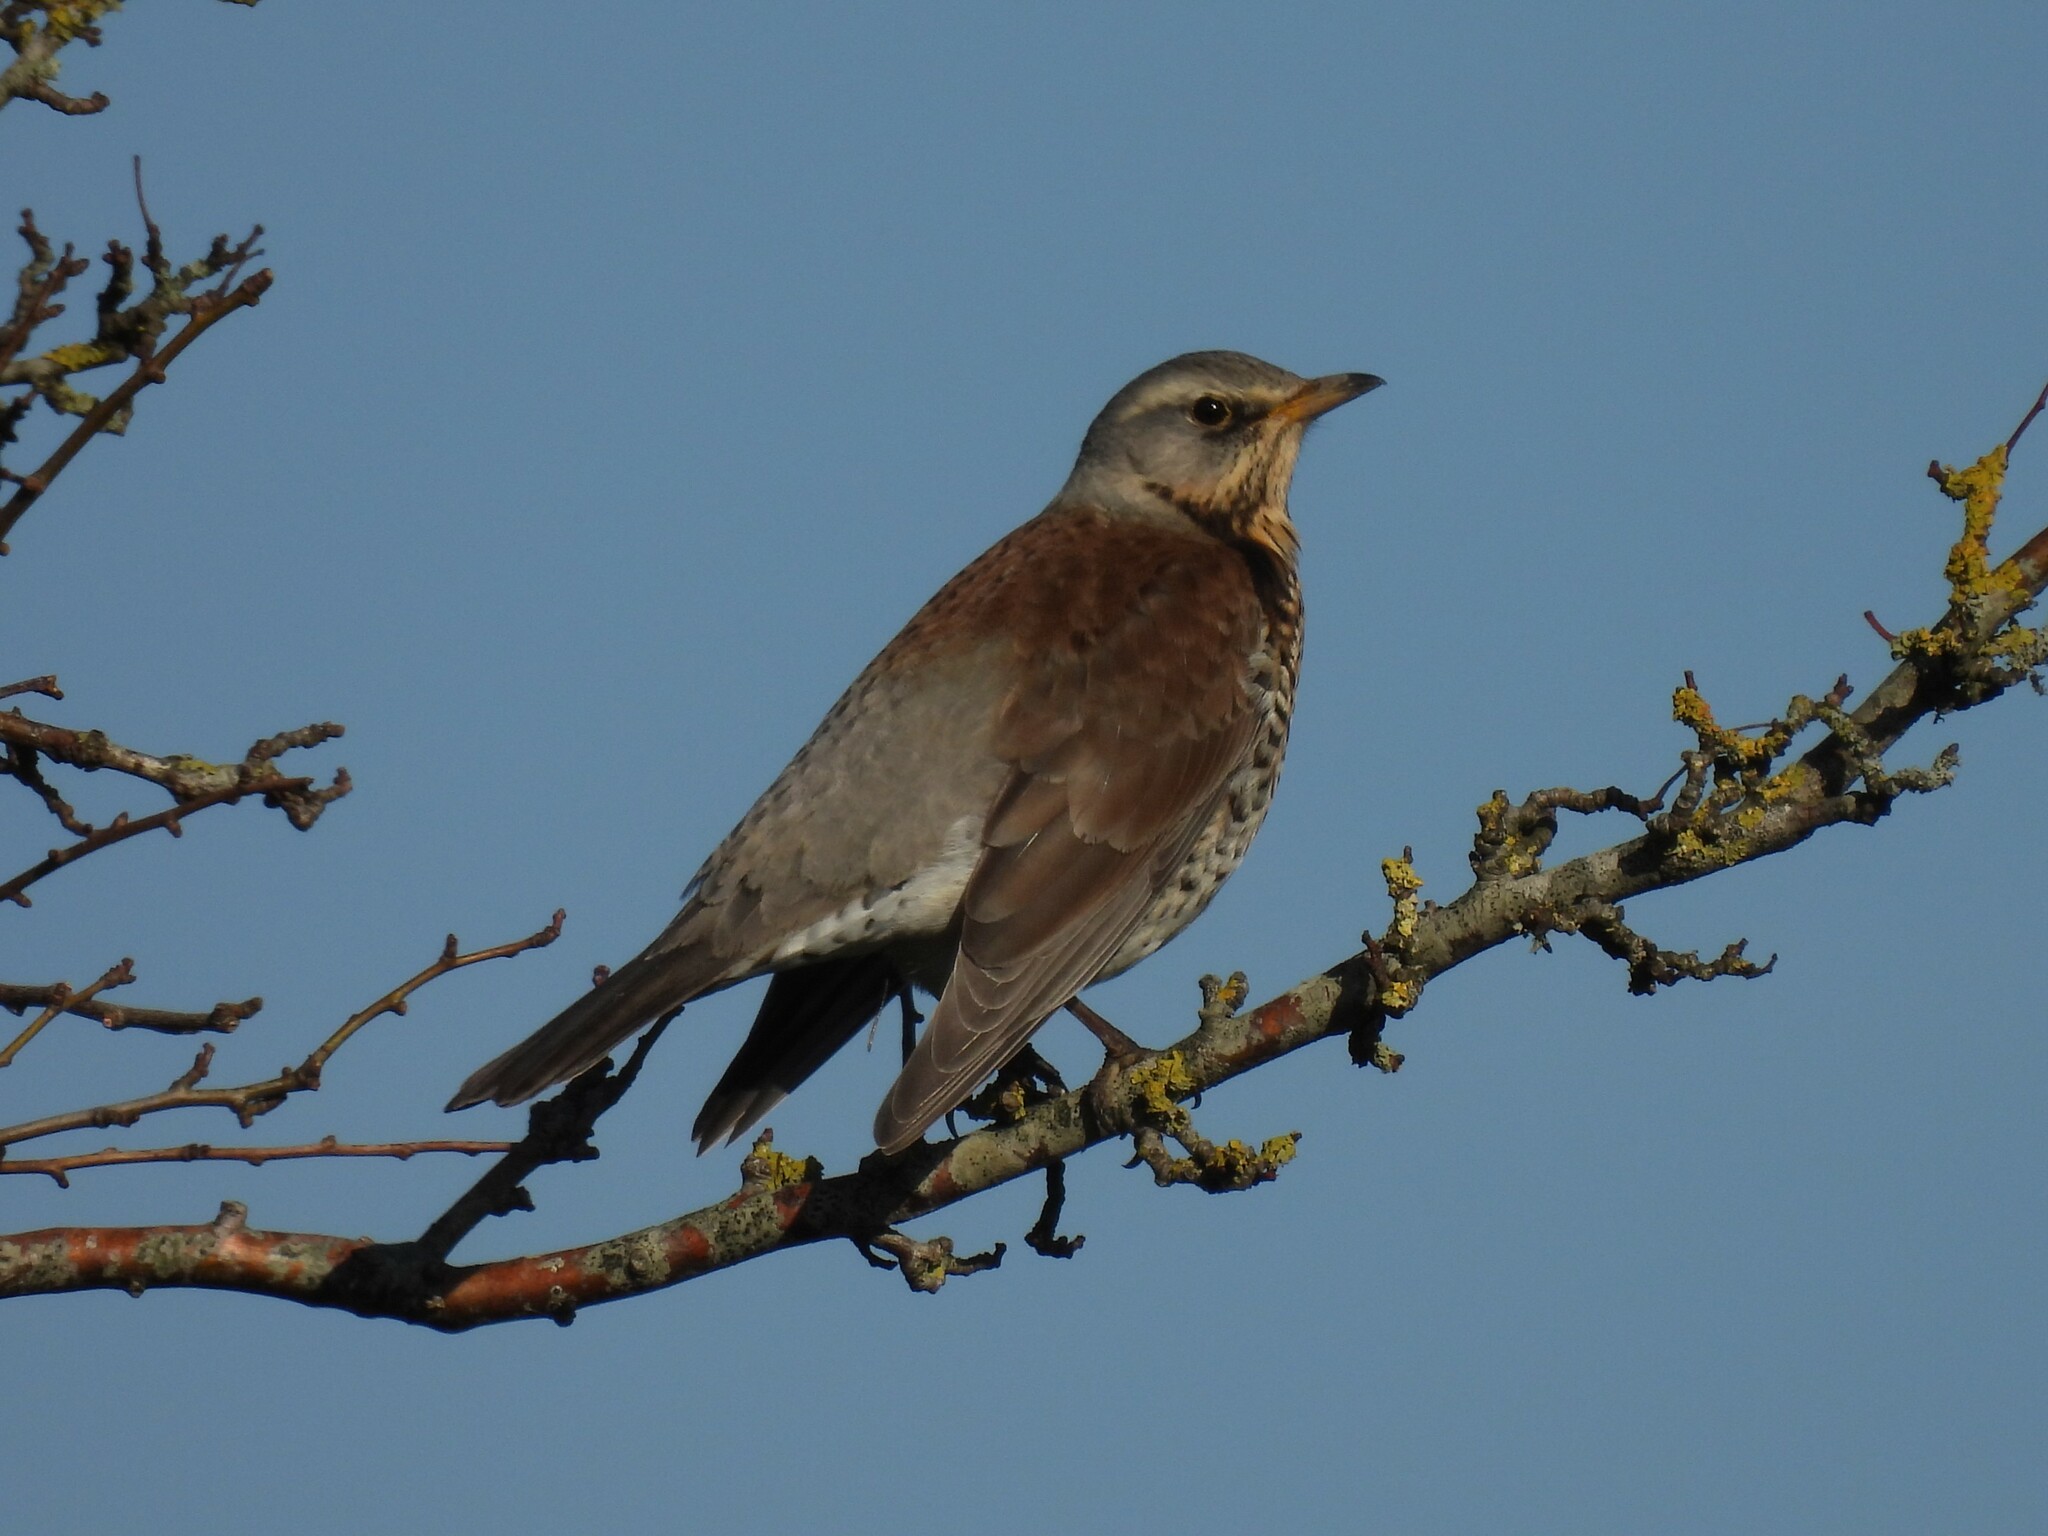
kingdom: Animalia
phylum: Chordata
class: Aves
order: Passeriformes
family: Turdidae
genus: Turdus
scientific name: Turdus pilaris
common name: Fieldfare
